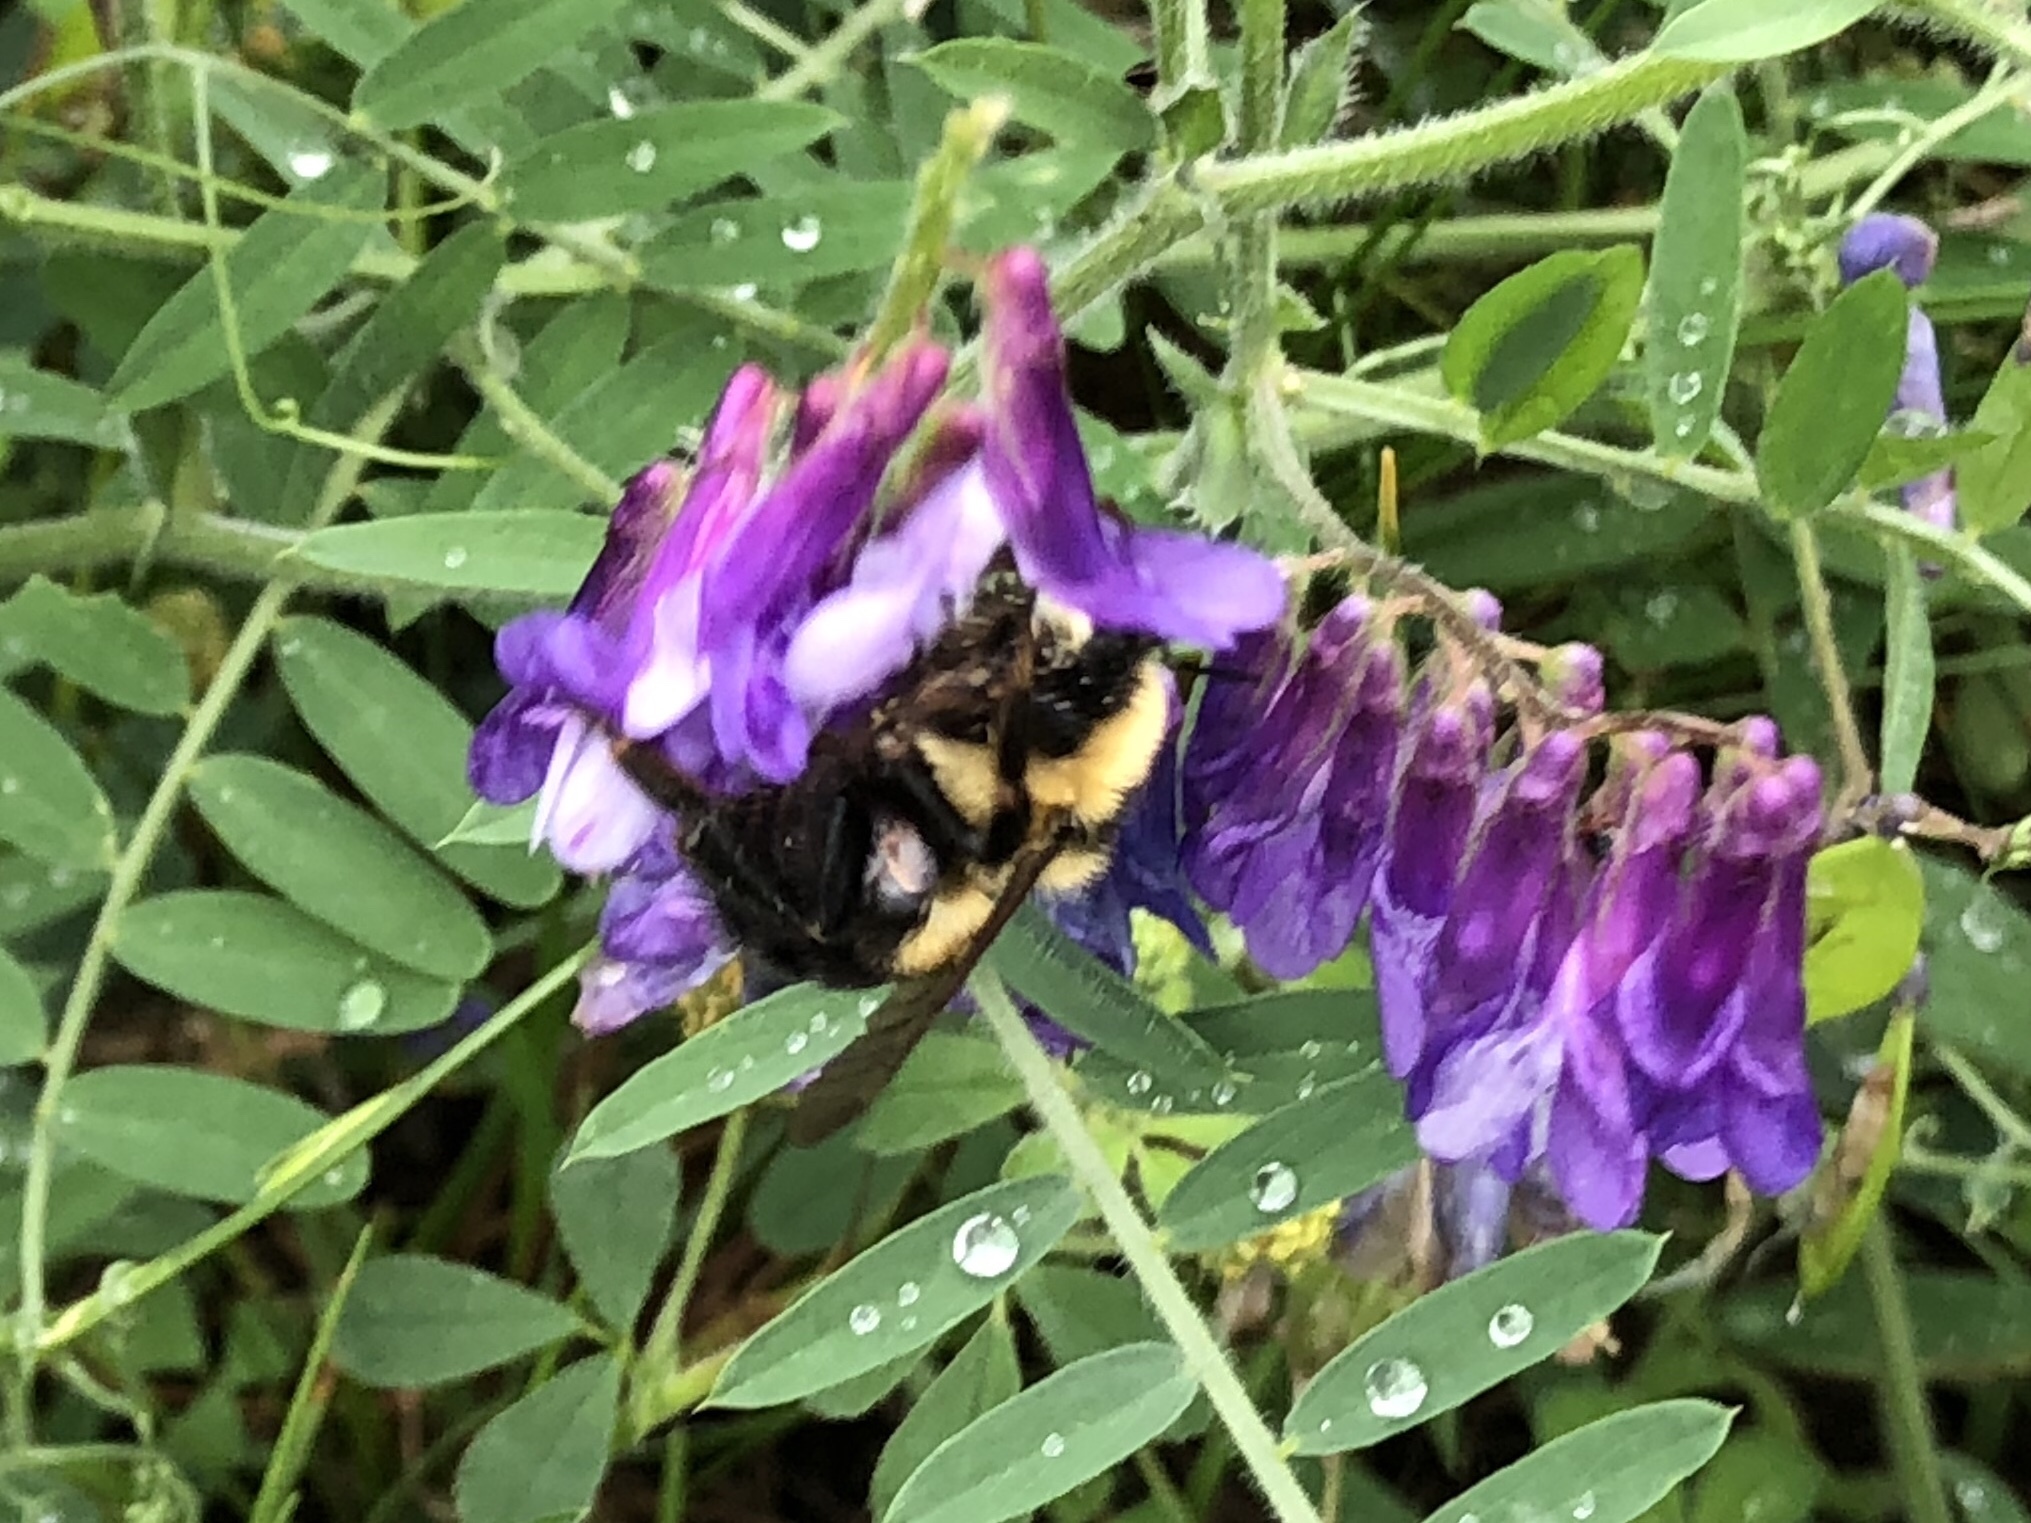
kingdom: Animalia
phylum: Arthropoda
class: Insecta
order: Hymenoptera
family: Apidae
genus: Bombus
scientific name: Bombus rufocinctus
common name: Red-belted bumble bee
